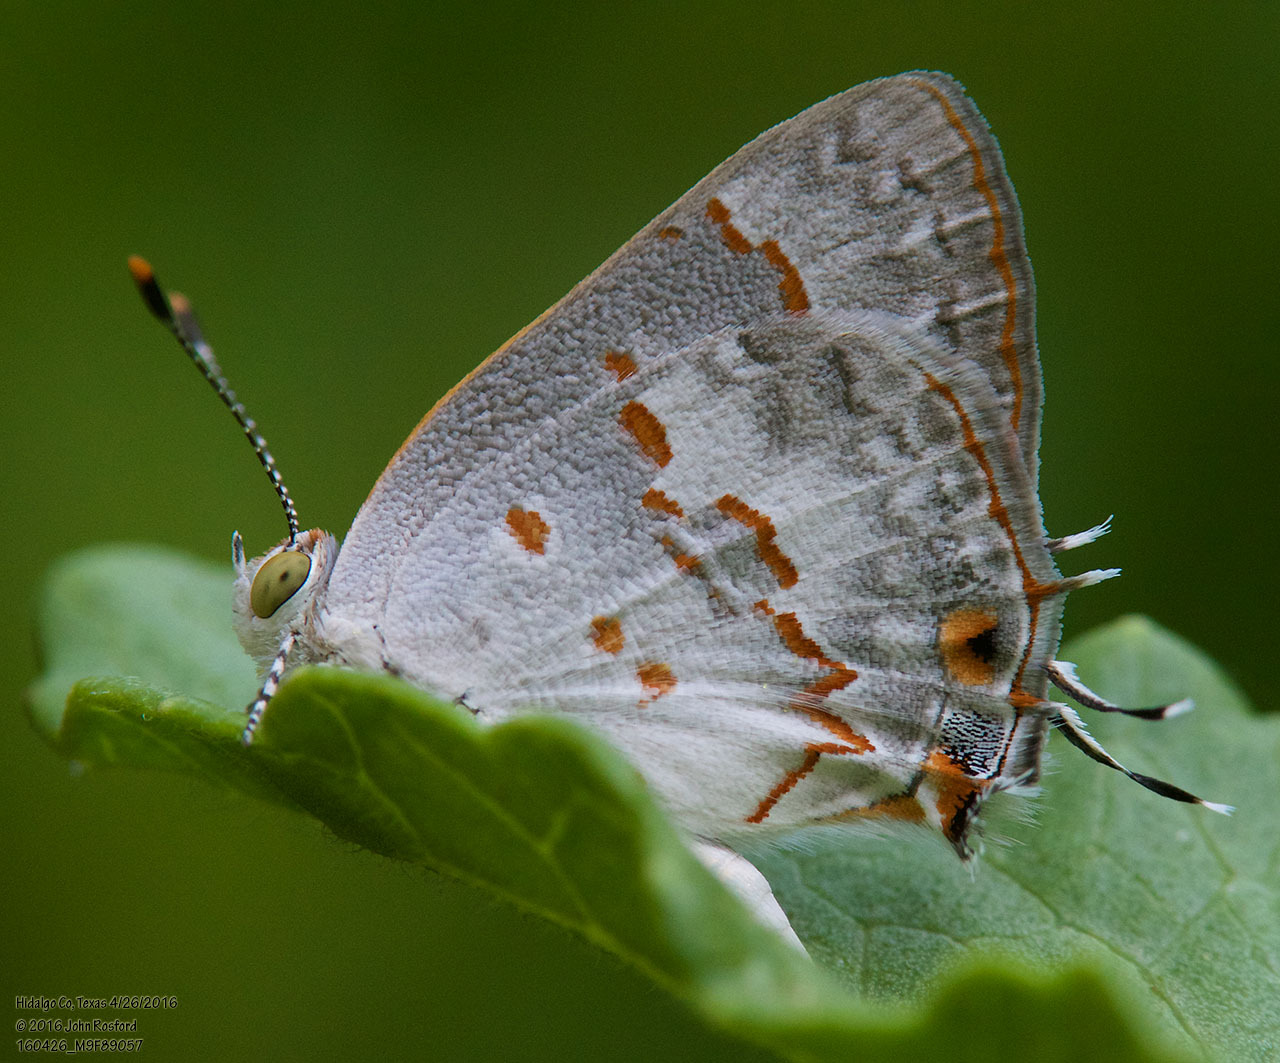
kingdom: Animalia
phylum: Arthropoda
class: Insecta
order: Lepidoptera
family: Lycaenidae
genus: Ministrymon
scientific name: Ministrymon clytie
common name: Clytie ministreak
